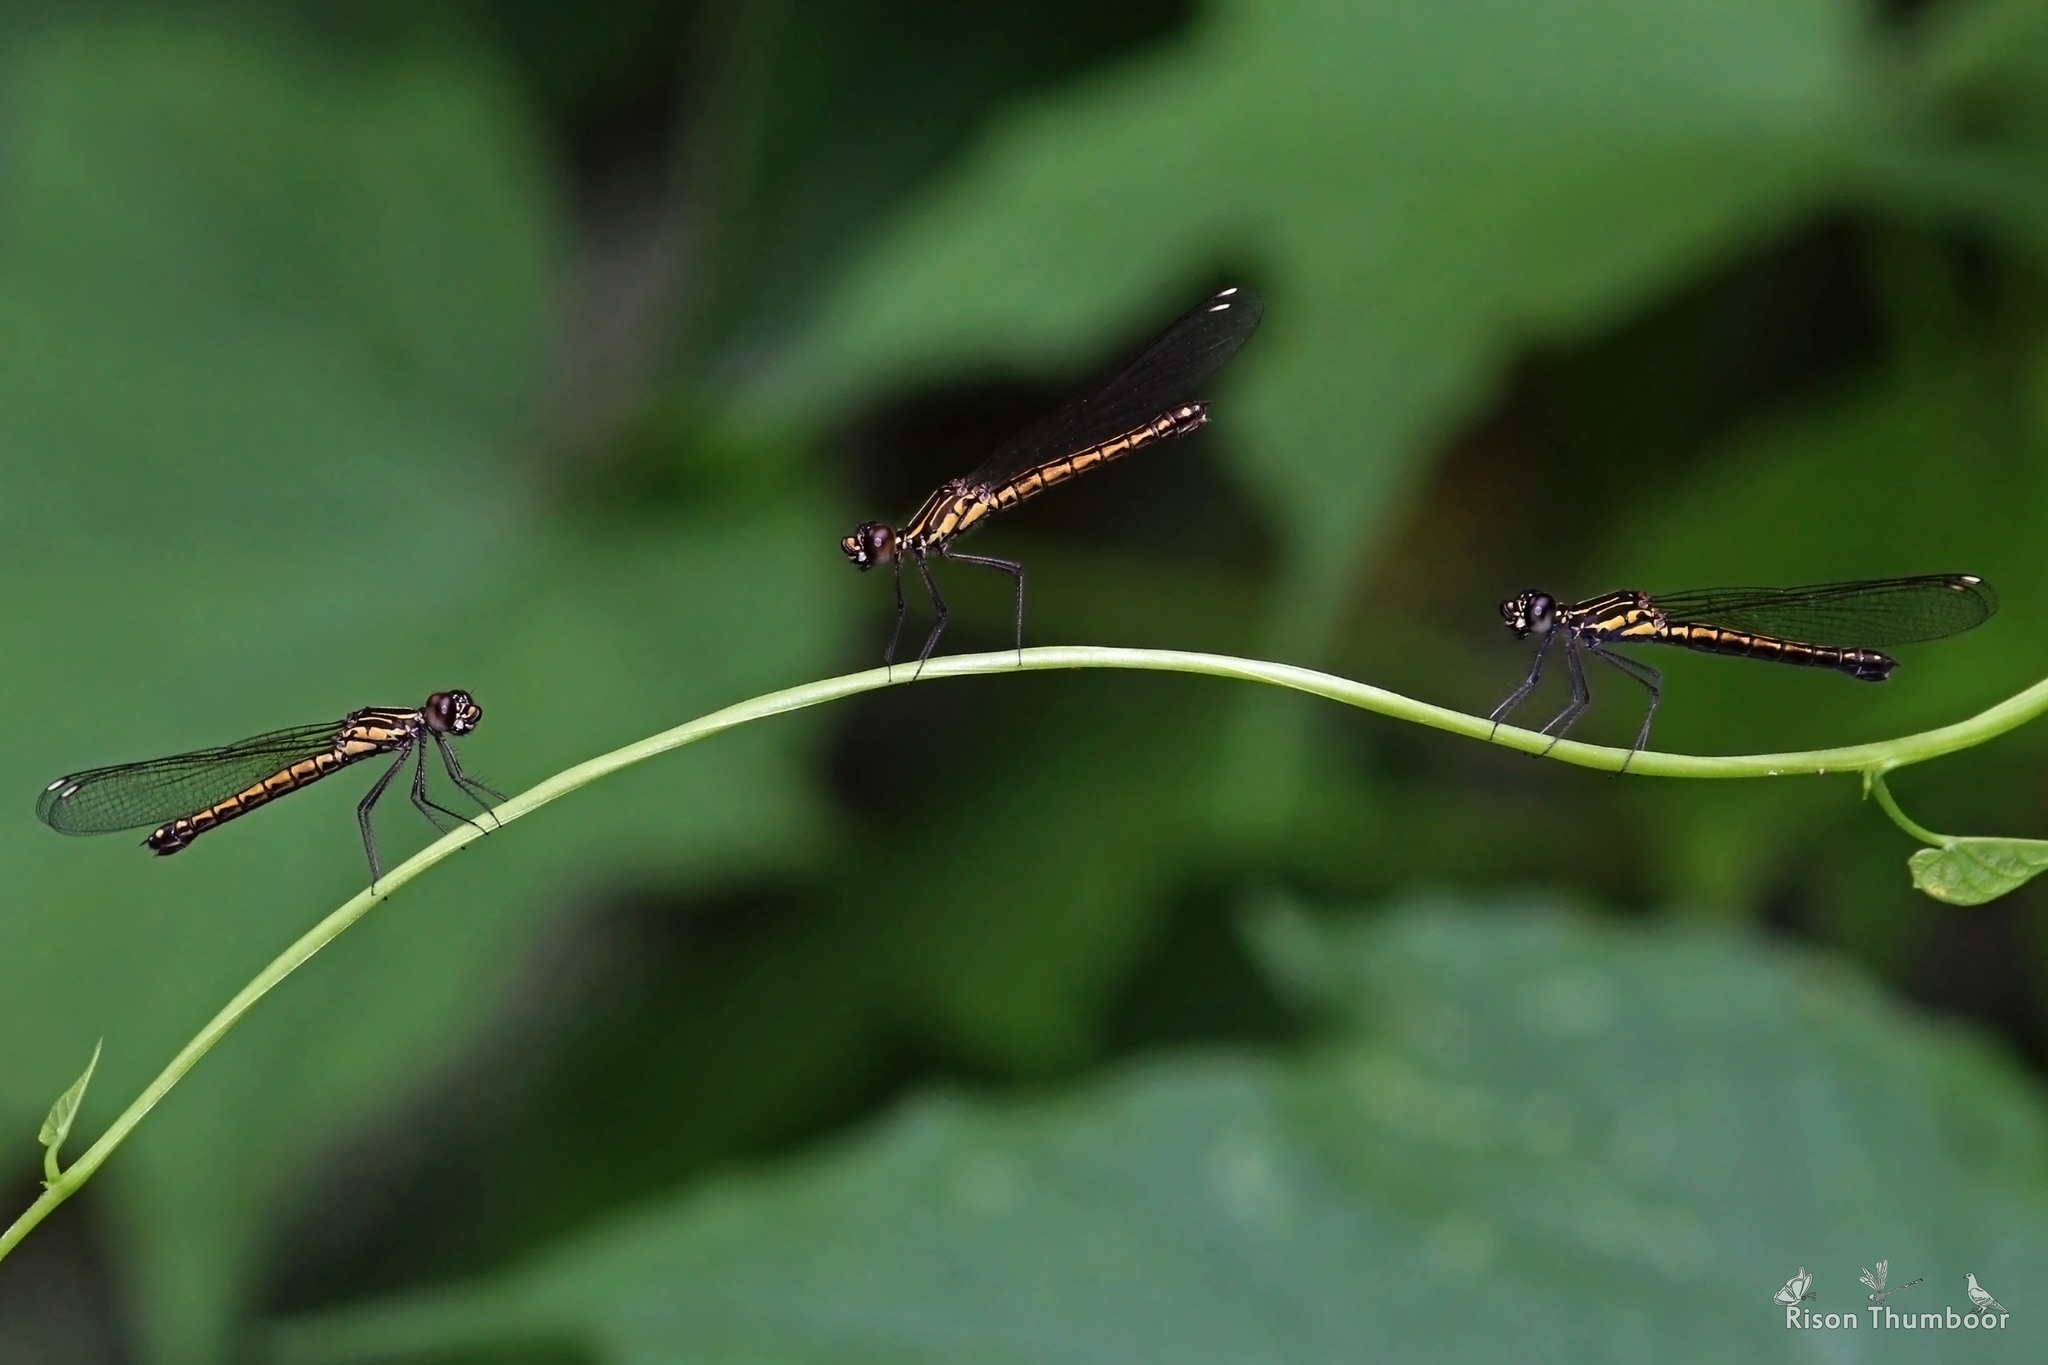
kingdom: Animalia
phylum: Arthropoda
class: Insecta
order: Odonata
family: Chlorocyphidae
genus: Libellago
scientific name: Libellago indica
